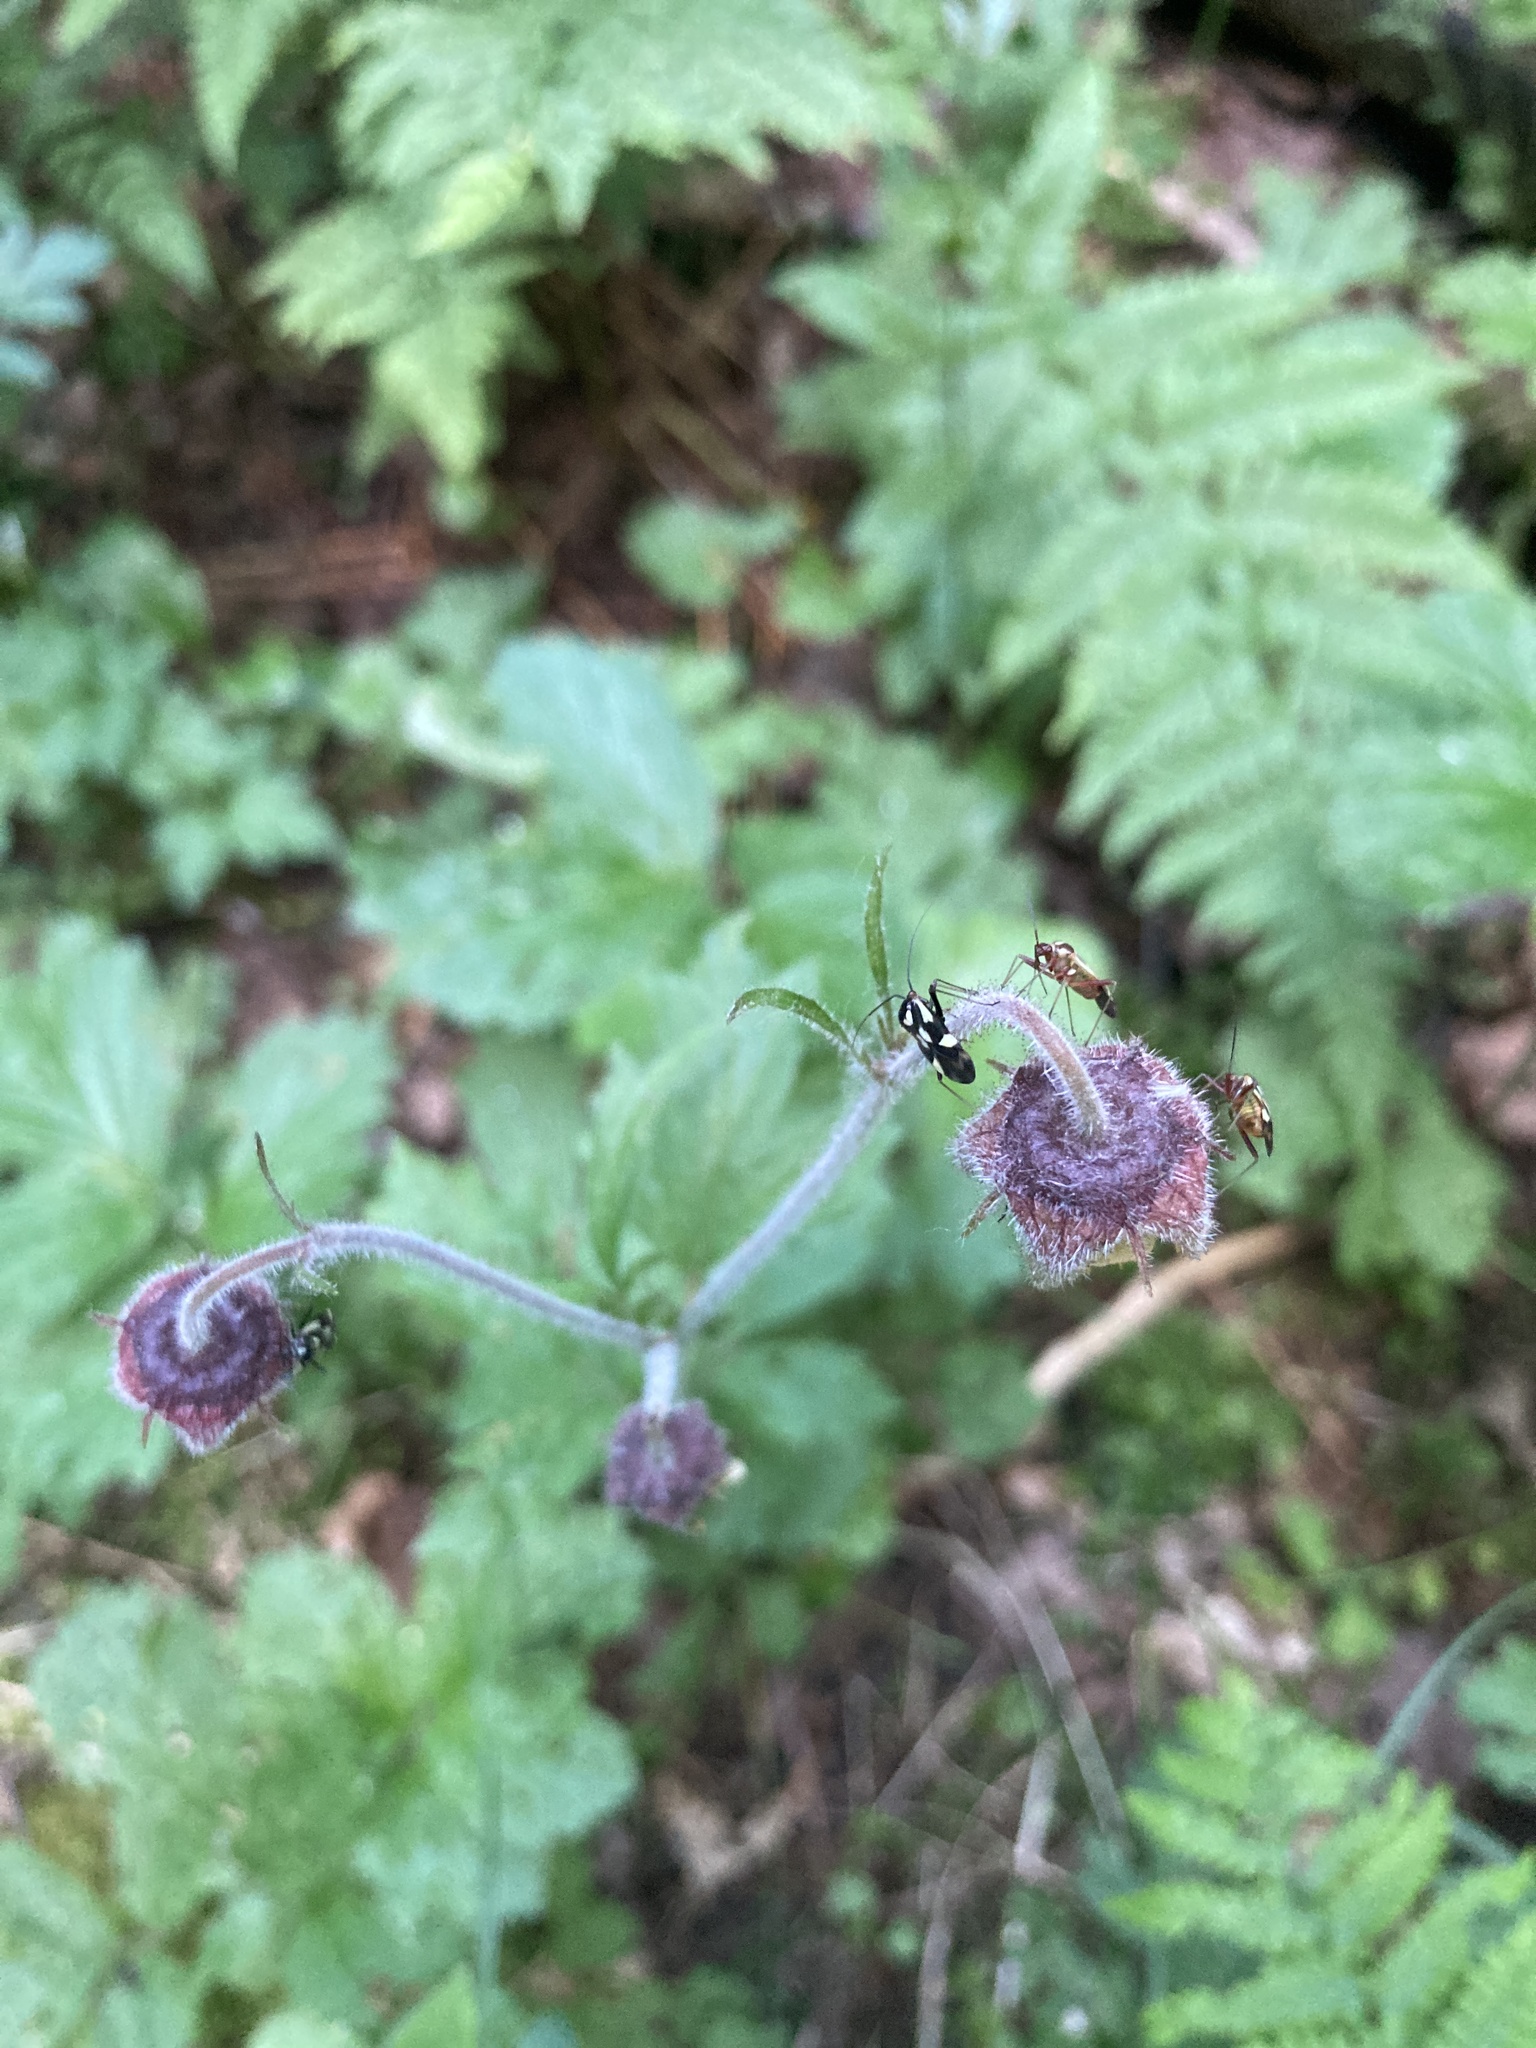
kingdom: Plantae
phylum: Tracheophyta
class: Magnoliopsida
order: Rosales
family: Rosaceae
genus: Geum
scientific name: Geum rivale
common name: Water avens
